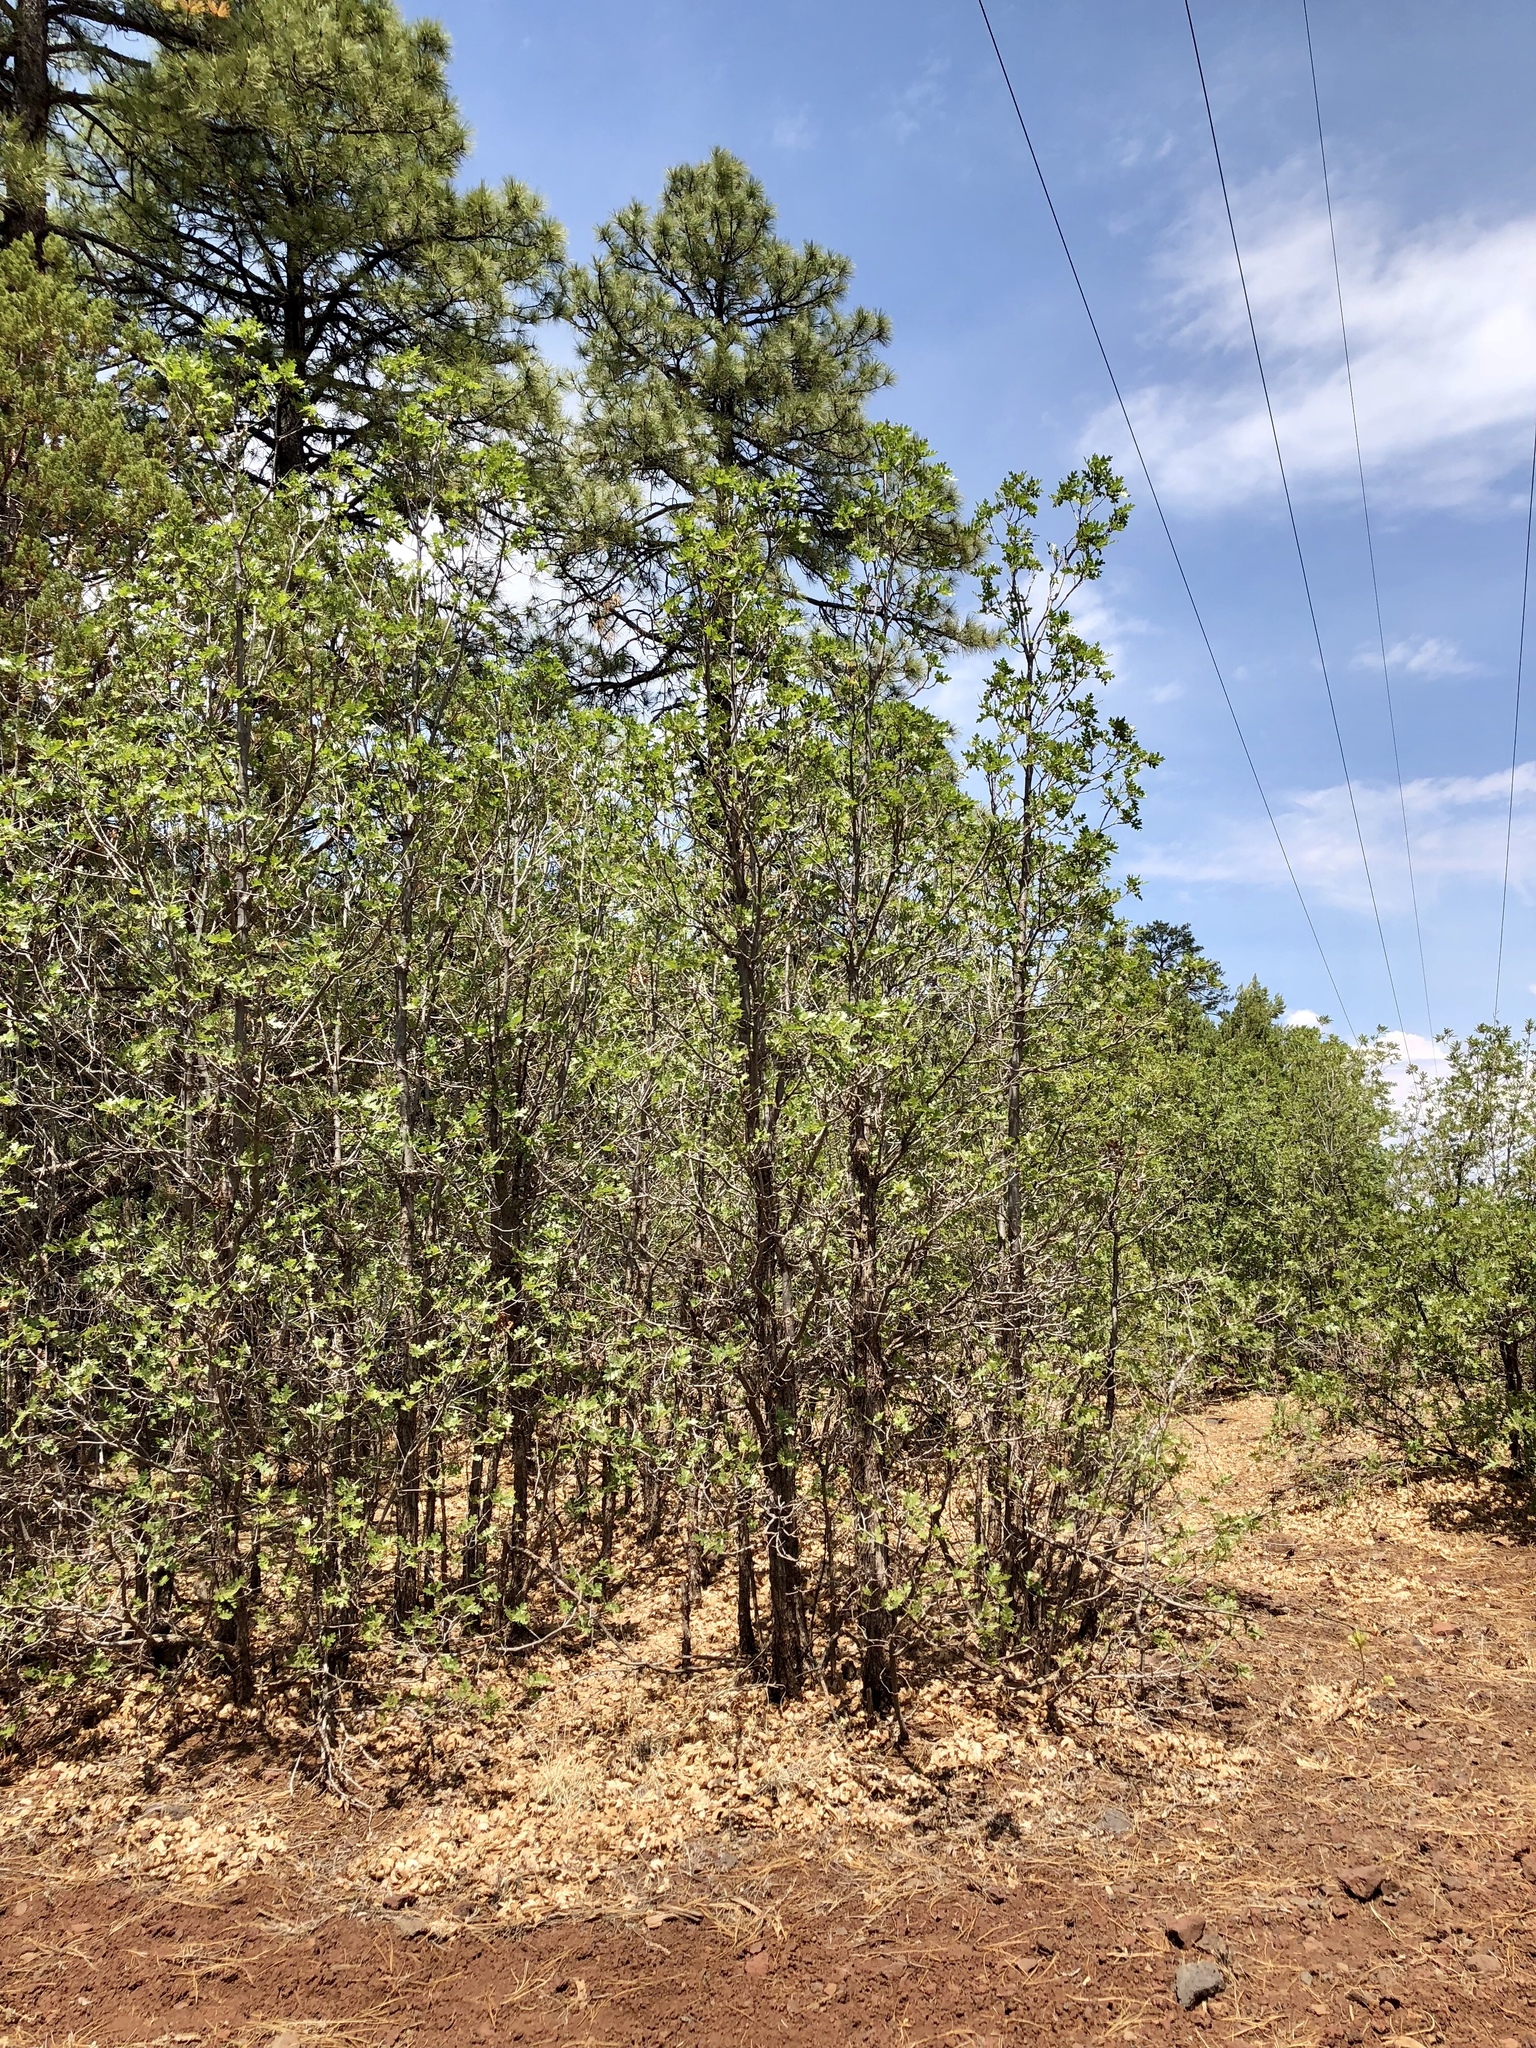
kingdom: Plantae
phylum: Tracheophyta
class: Magnoliopsida
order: Fagales
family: Fagaceae
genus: Quercus
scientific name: Quercus gambelii
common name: Gambel oak
